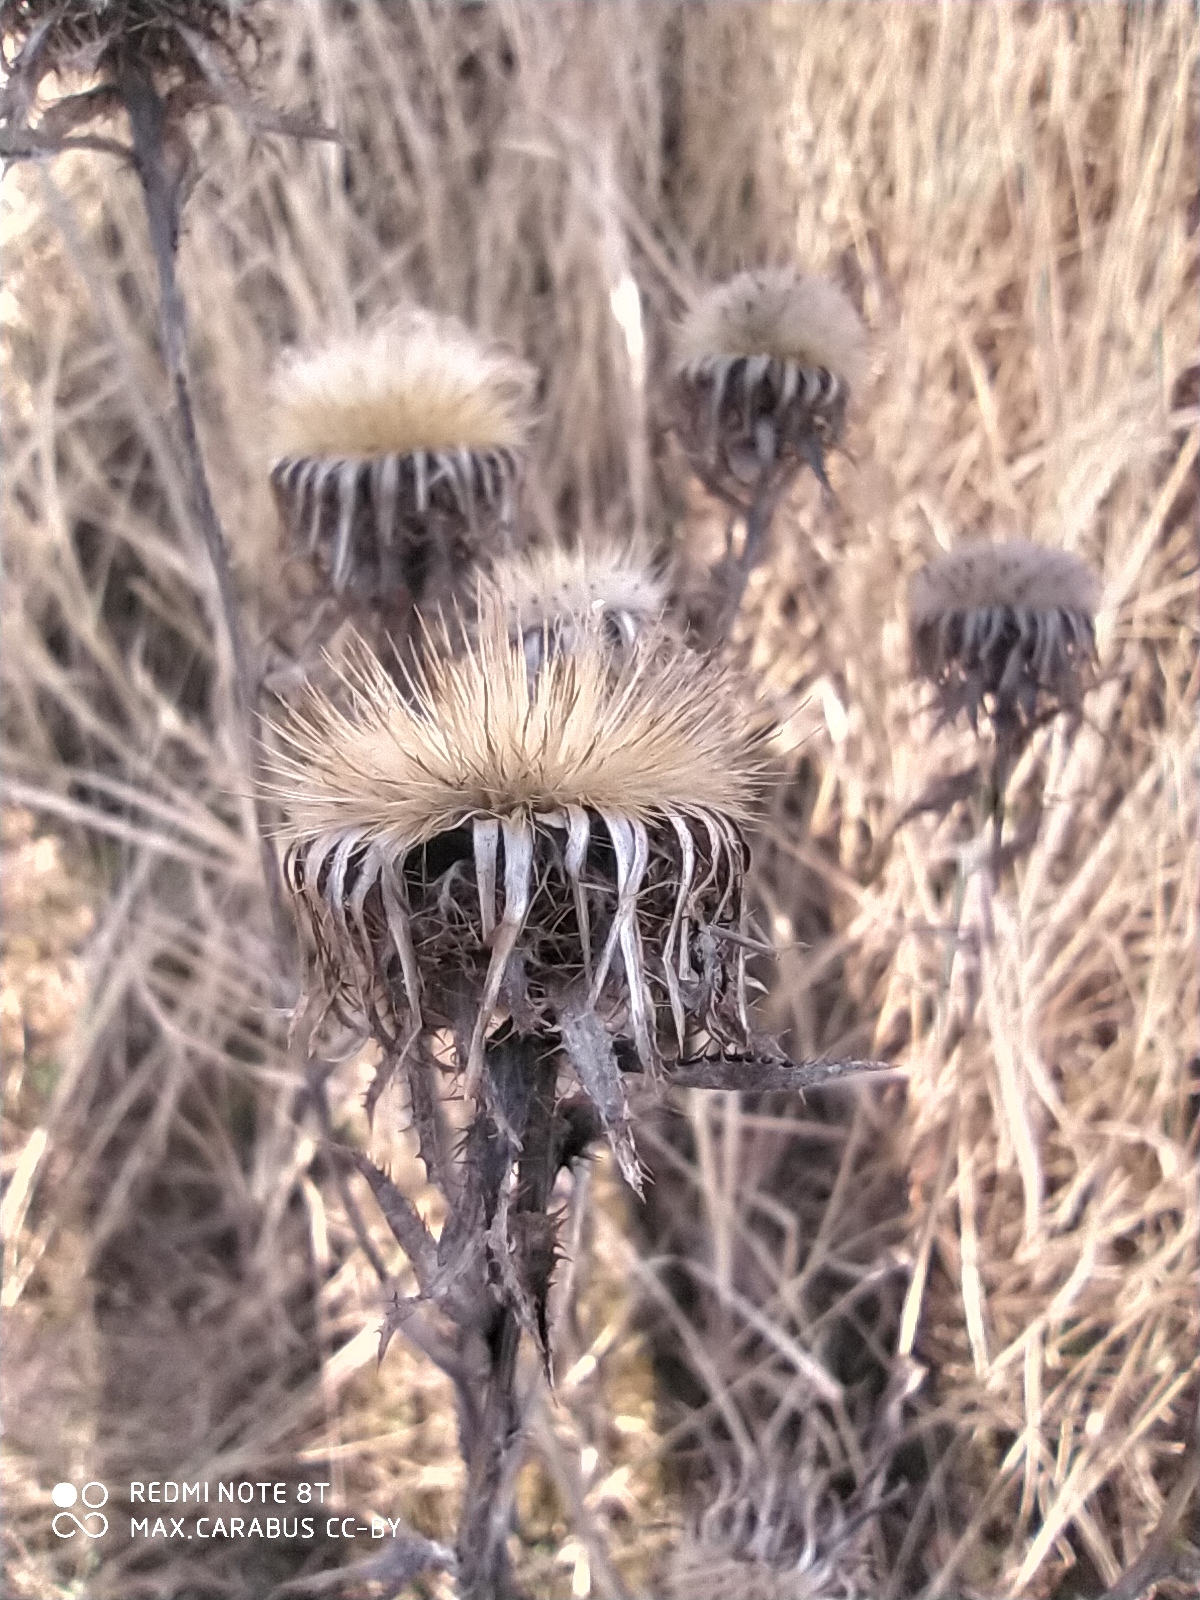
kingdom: Plantae
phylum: Tracheophyta
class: Magnoliopsida
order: Asterales
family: Asteraceae
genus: Carlina
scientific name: Carlina biebersteinii
